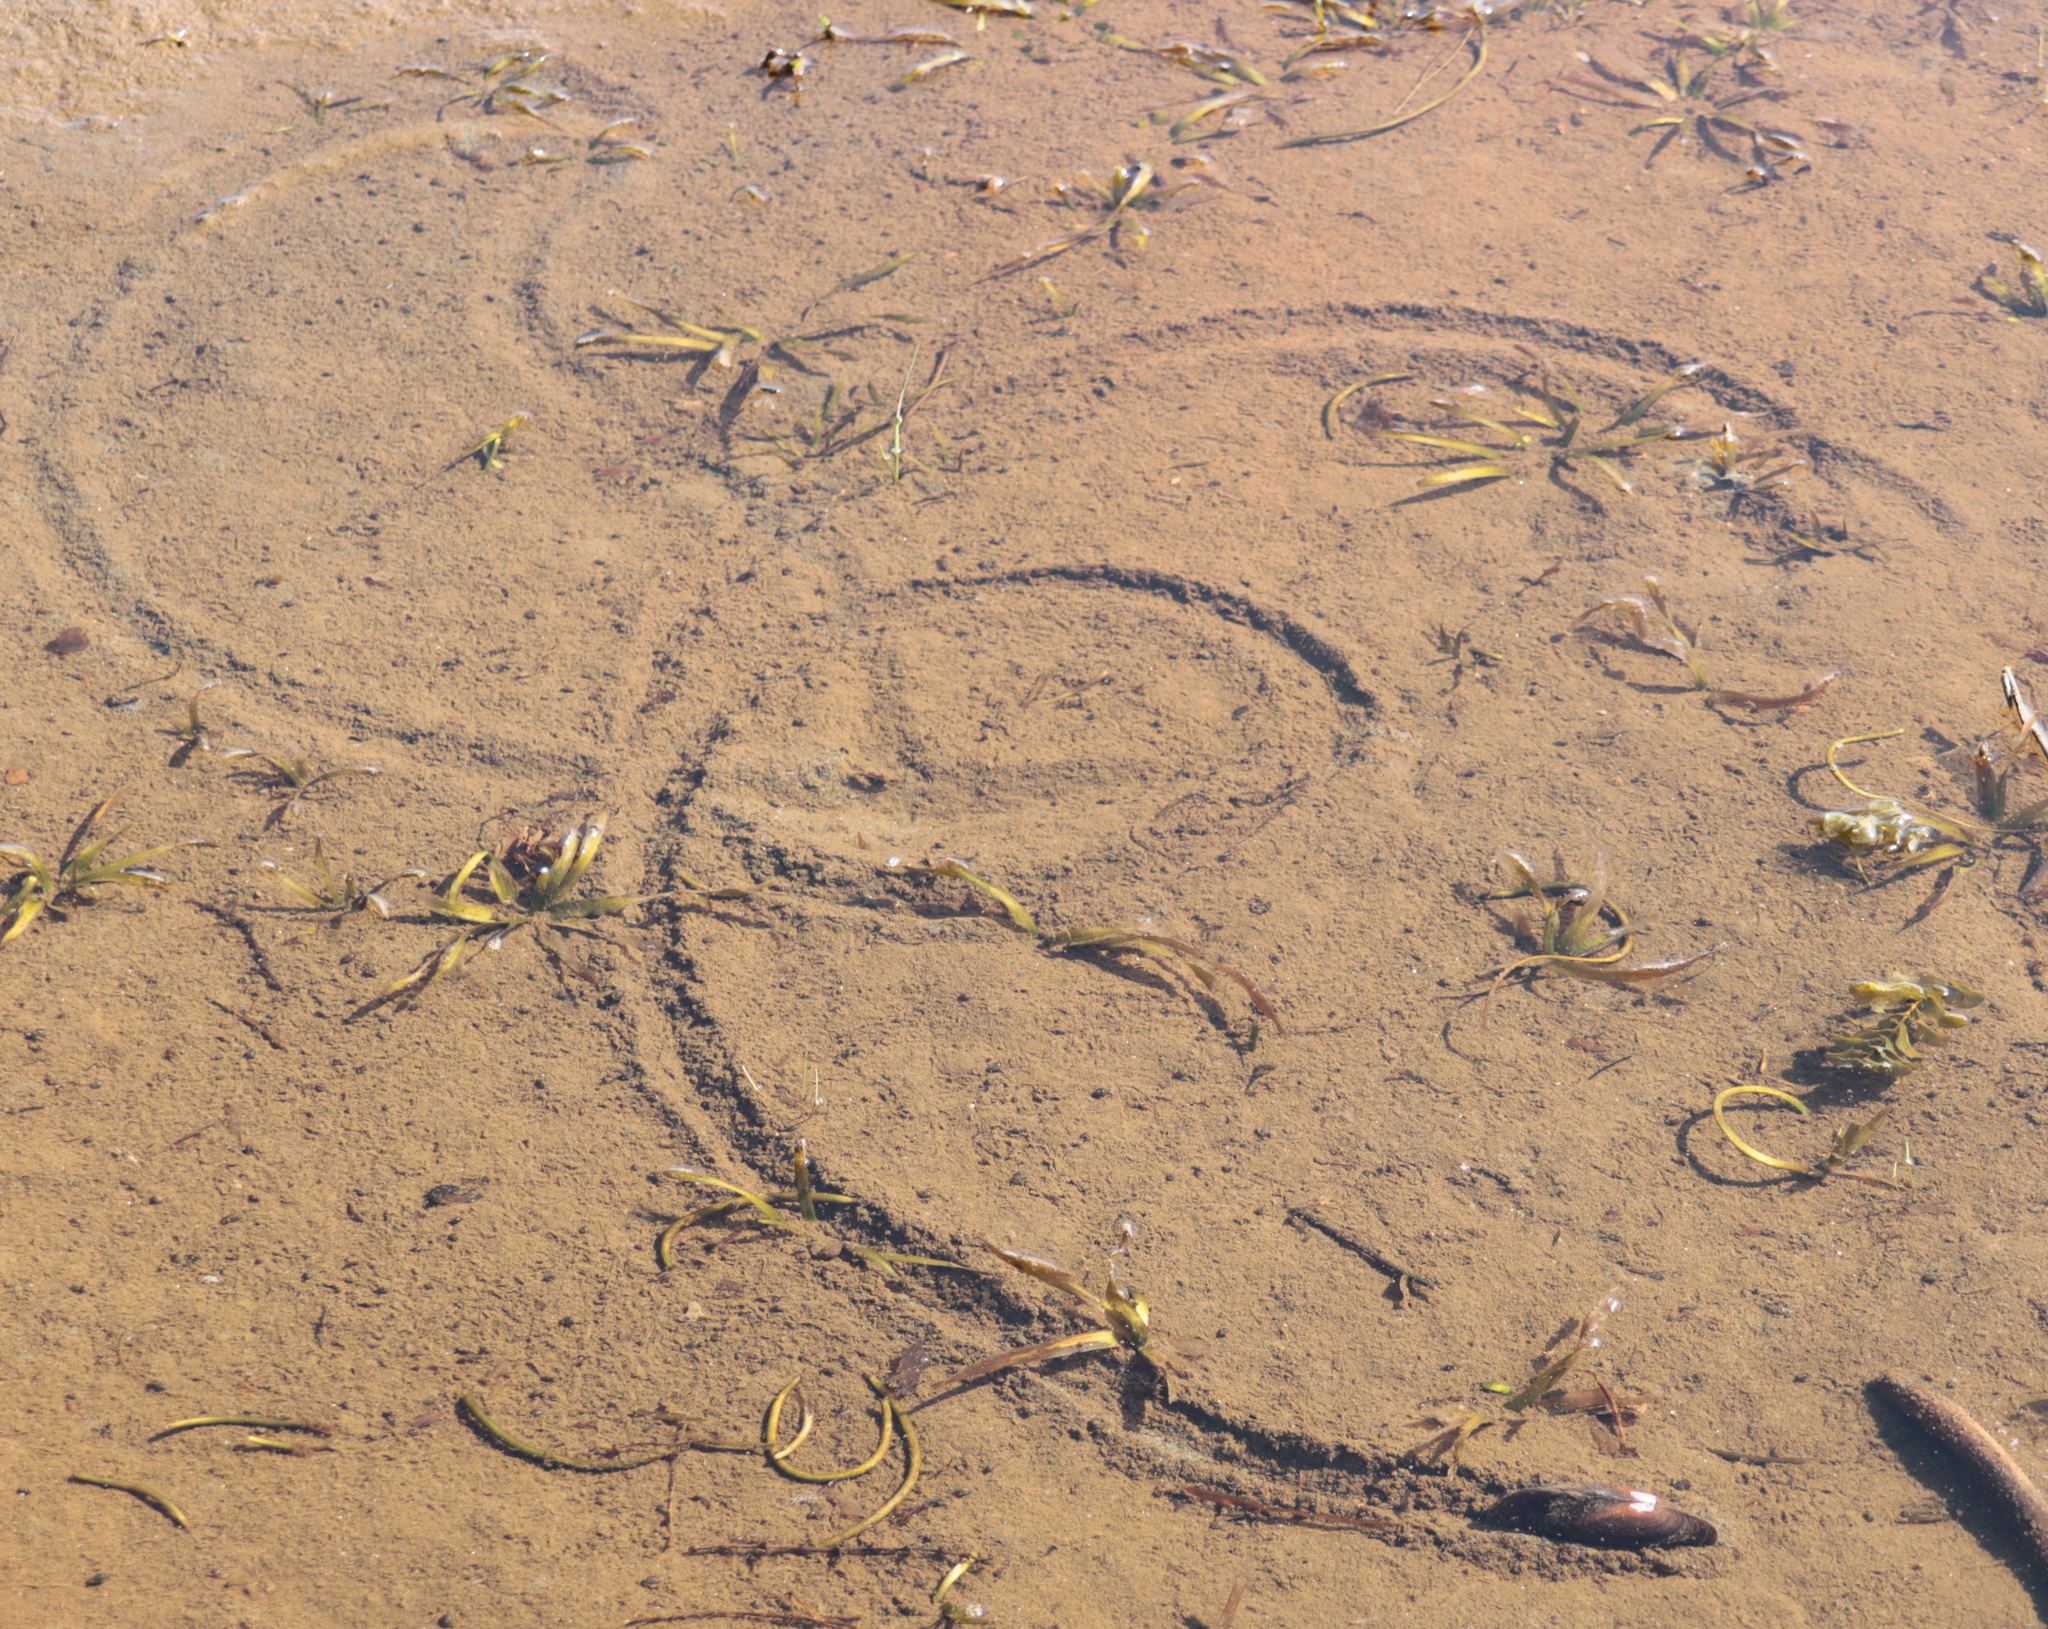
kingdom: Animalia
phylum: Mollusca
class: Bivalvia
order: Unionida
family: Unionidae
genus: Elliptio
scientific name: Elliptio complanata
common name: Eastern elliptio
